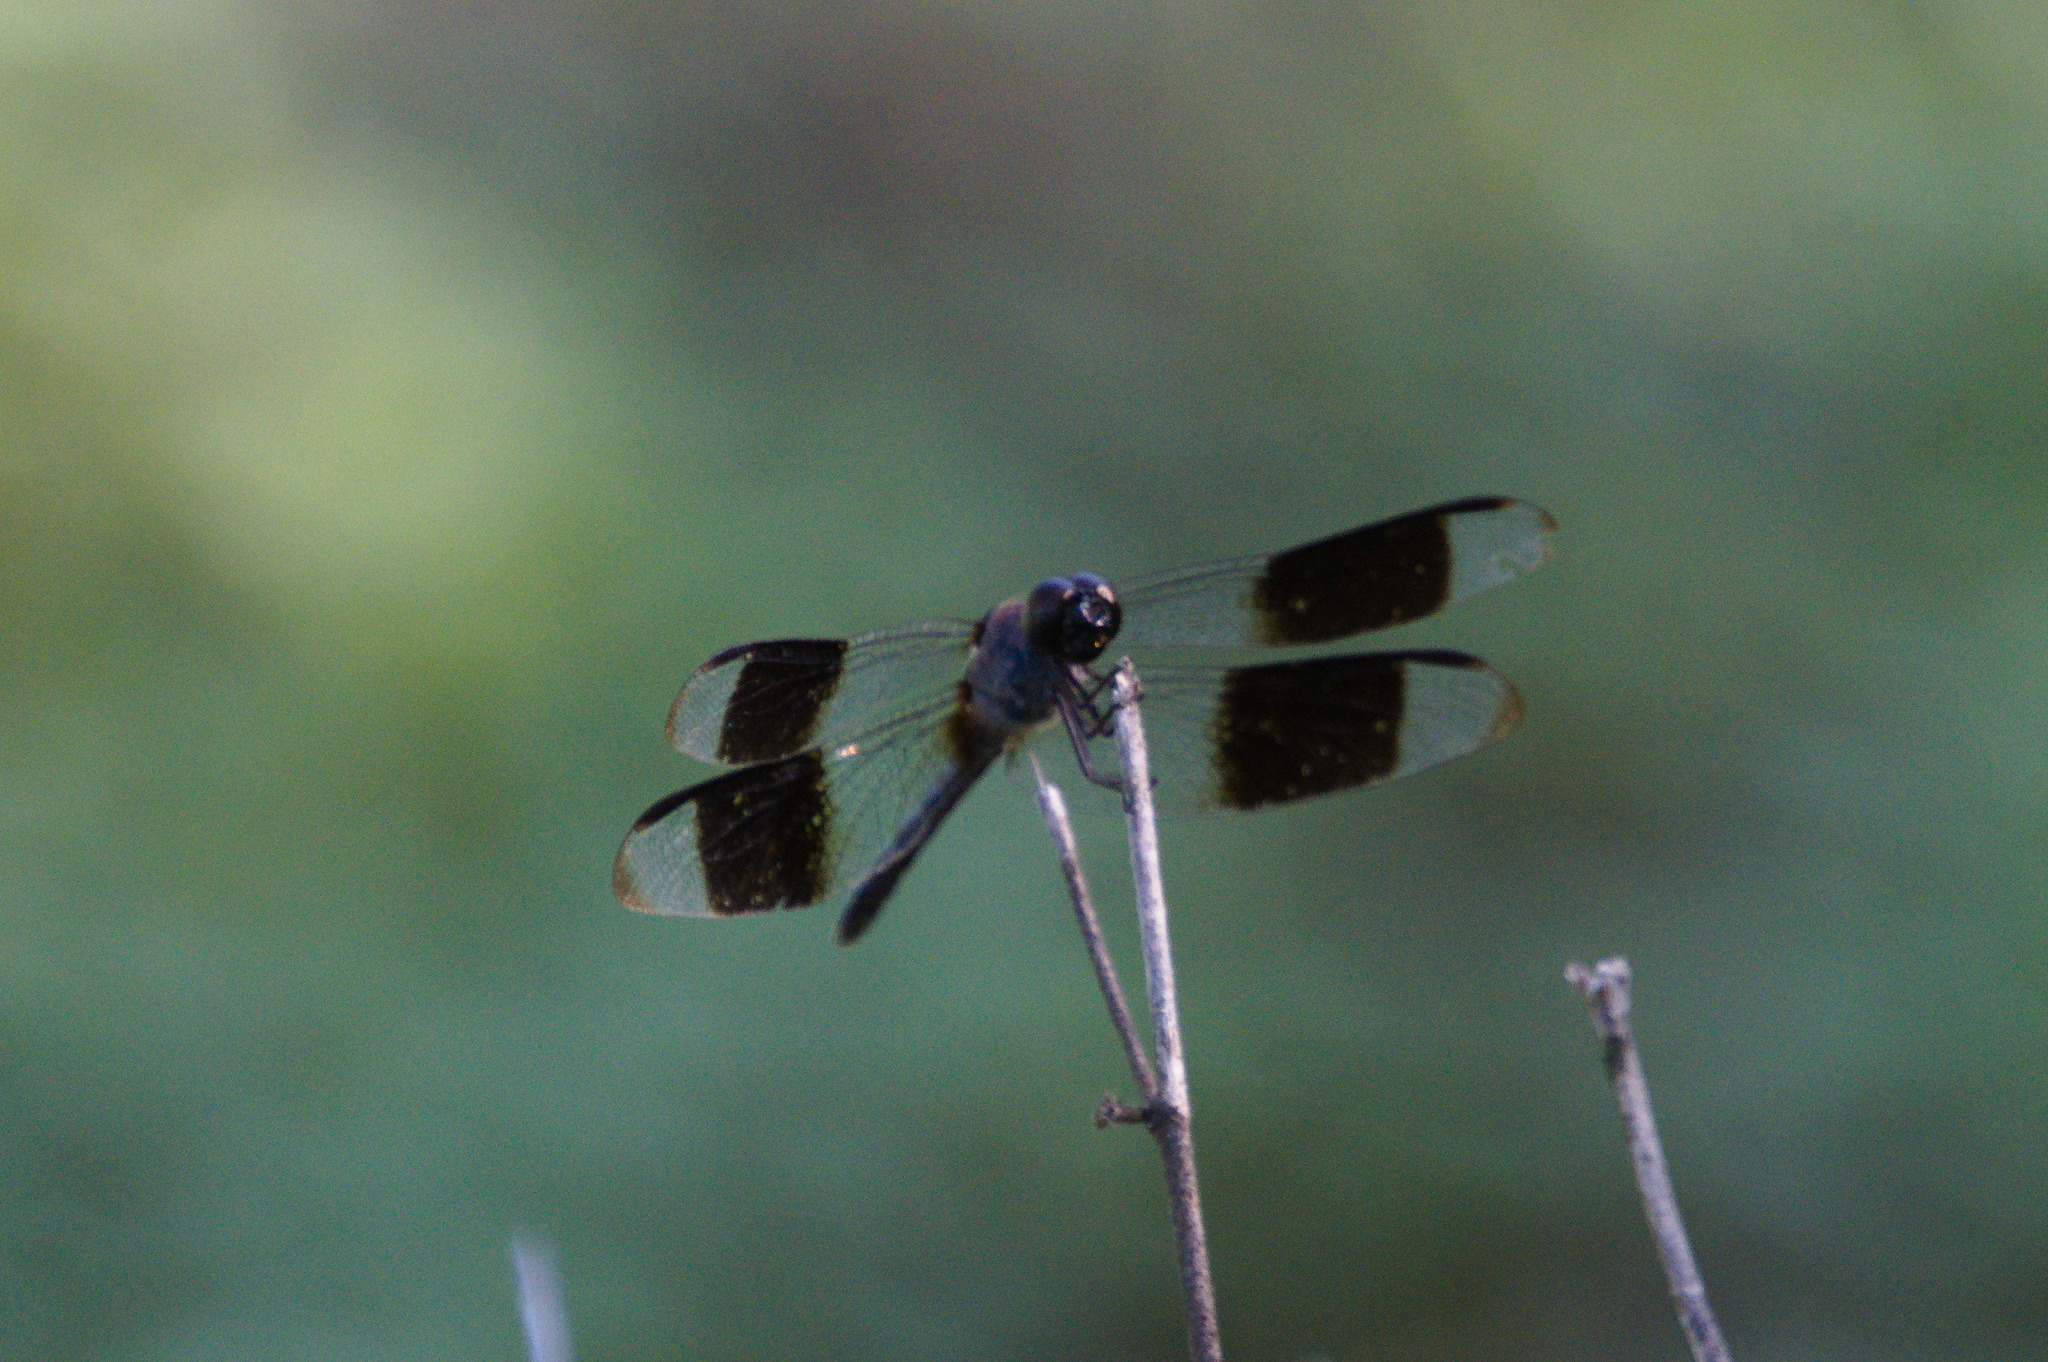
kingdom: Animalia
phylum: Arthropoda
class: Insecta
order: Odonata
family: Libellulidae
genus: Erythrodiplax
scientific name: Erythrodiplax umbrata
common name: Band-winged dragonlet
